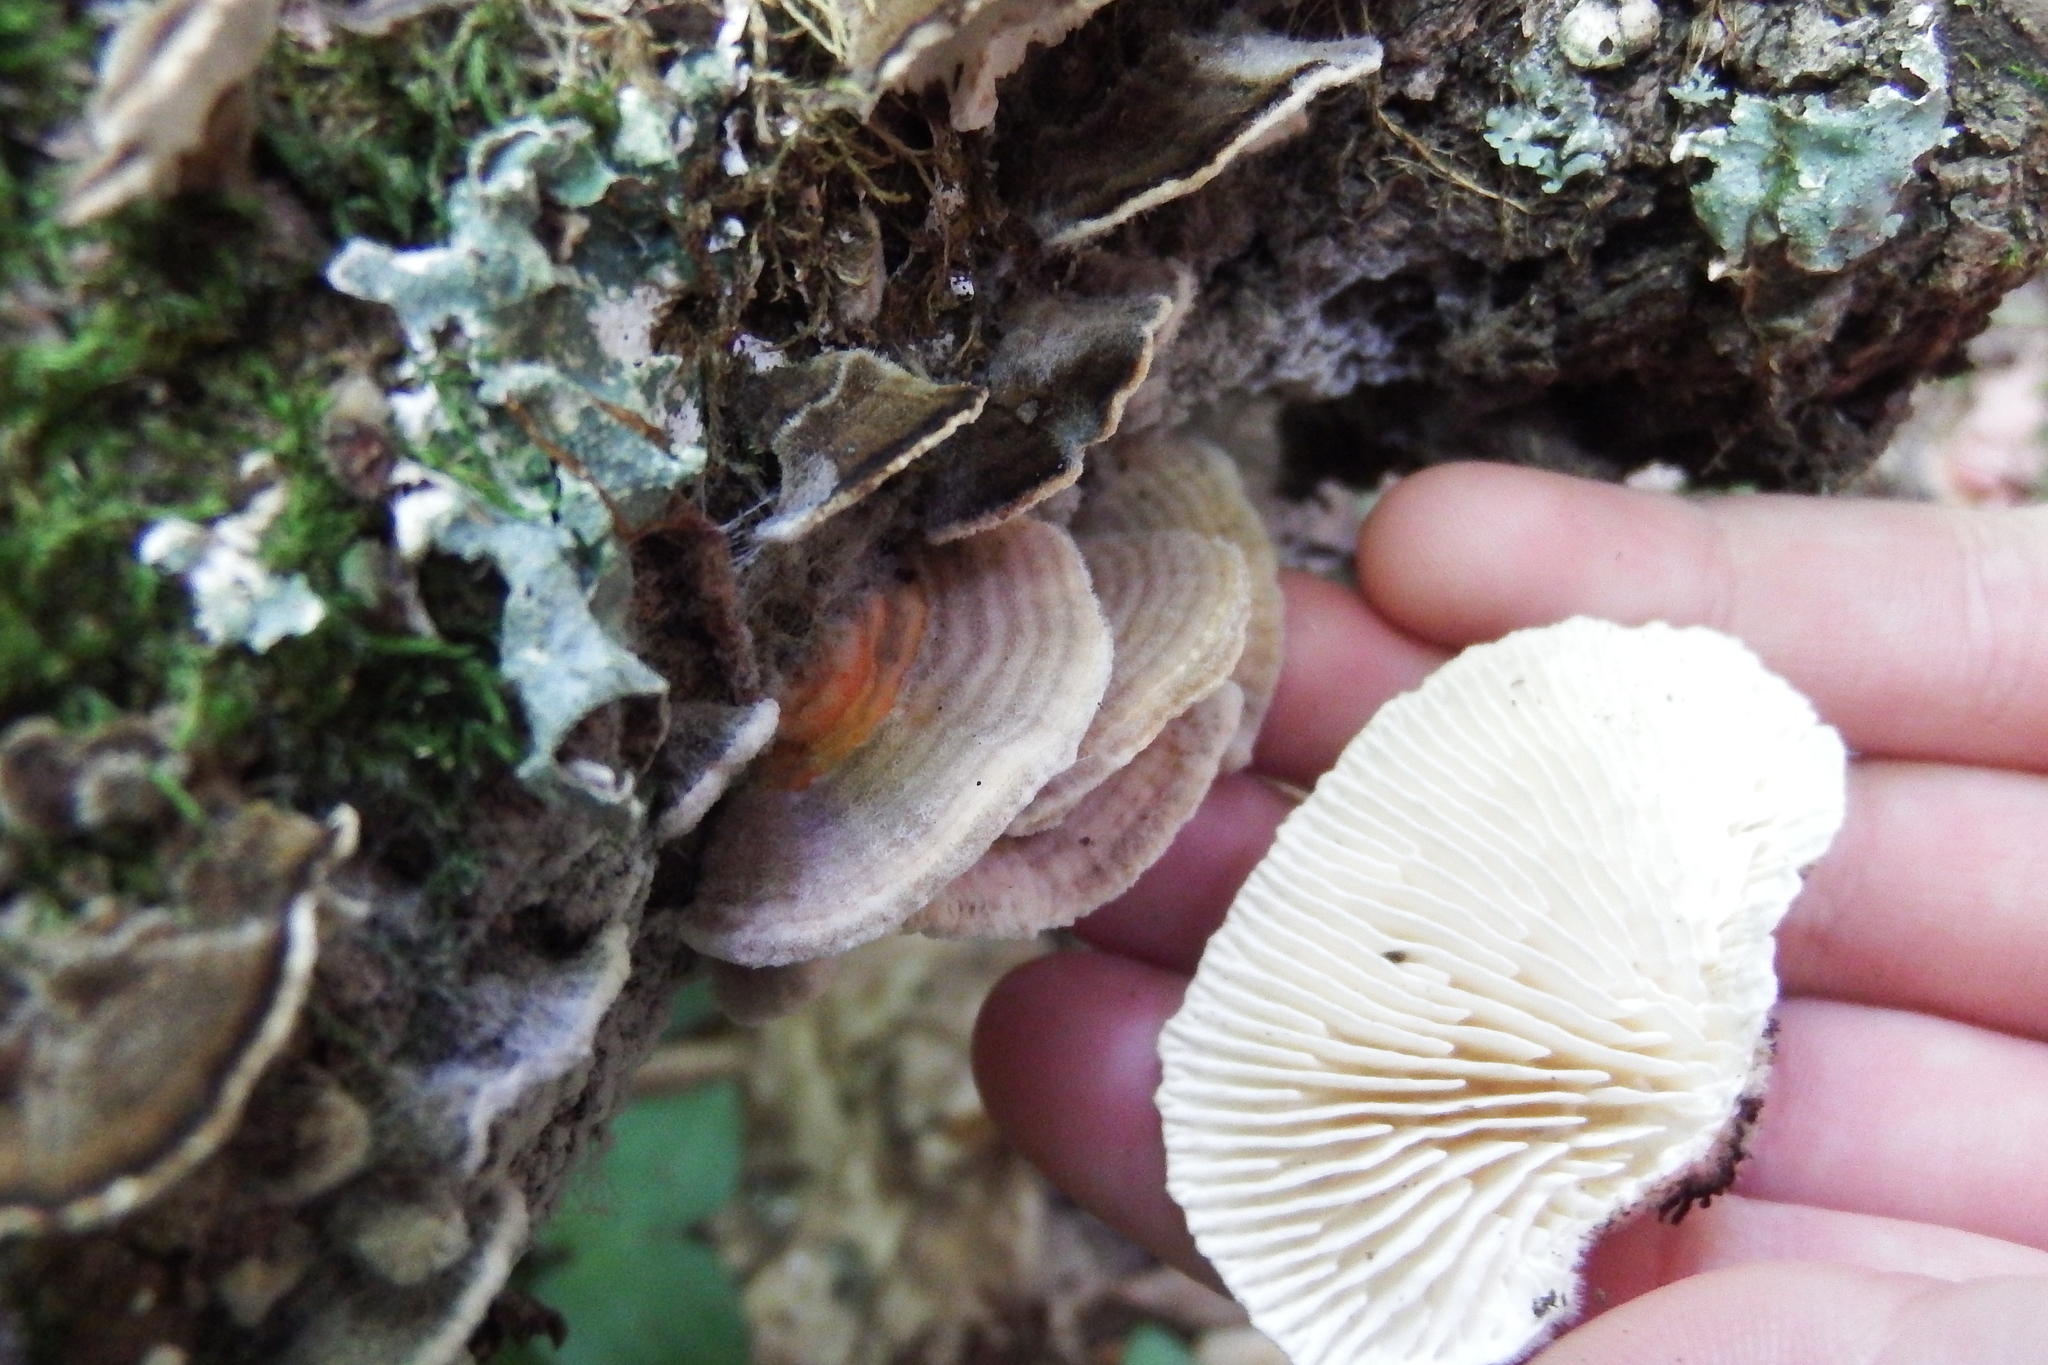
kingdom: Fungi
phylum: Basidiomycota
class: Agaricomycetes
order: Polyporales
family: Polyporaceae
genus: Lenzites
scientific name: Lenzites betulinus
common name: Birch mazegill
